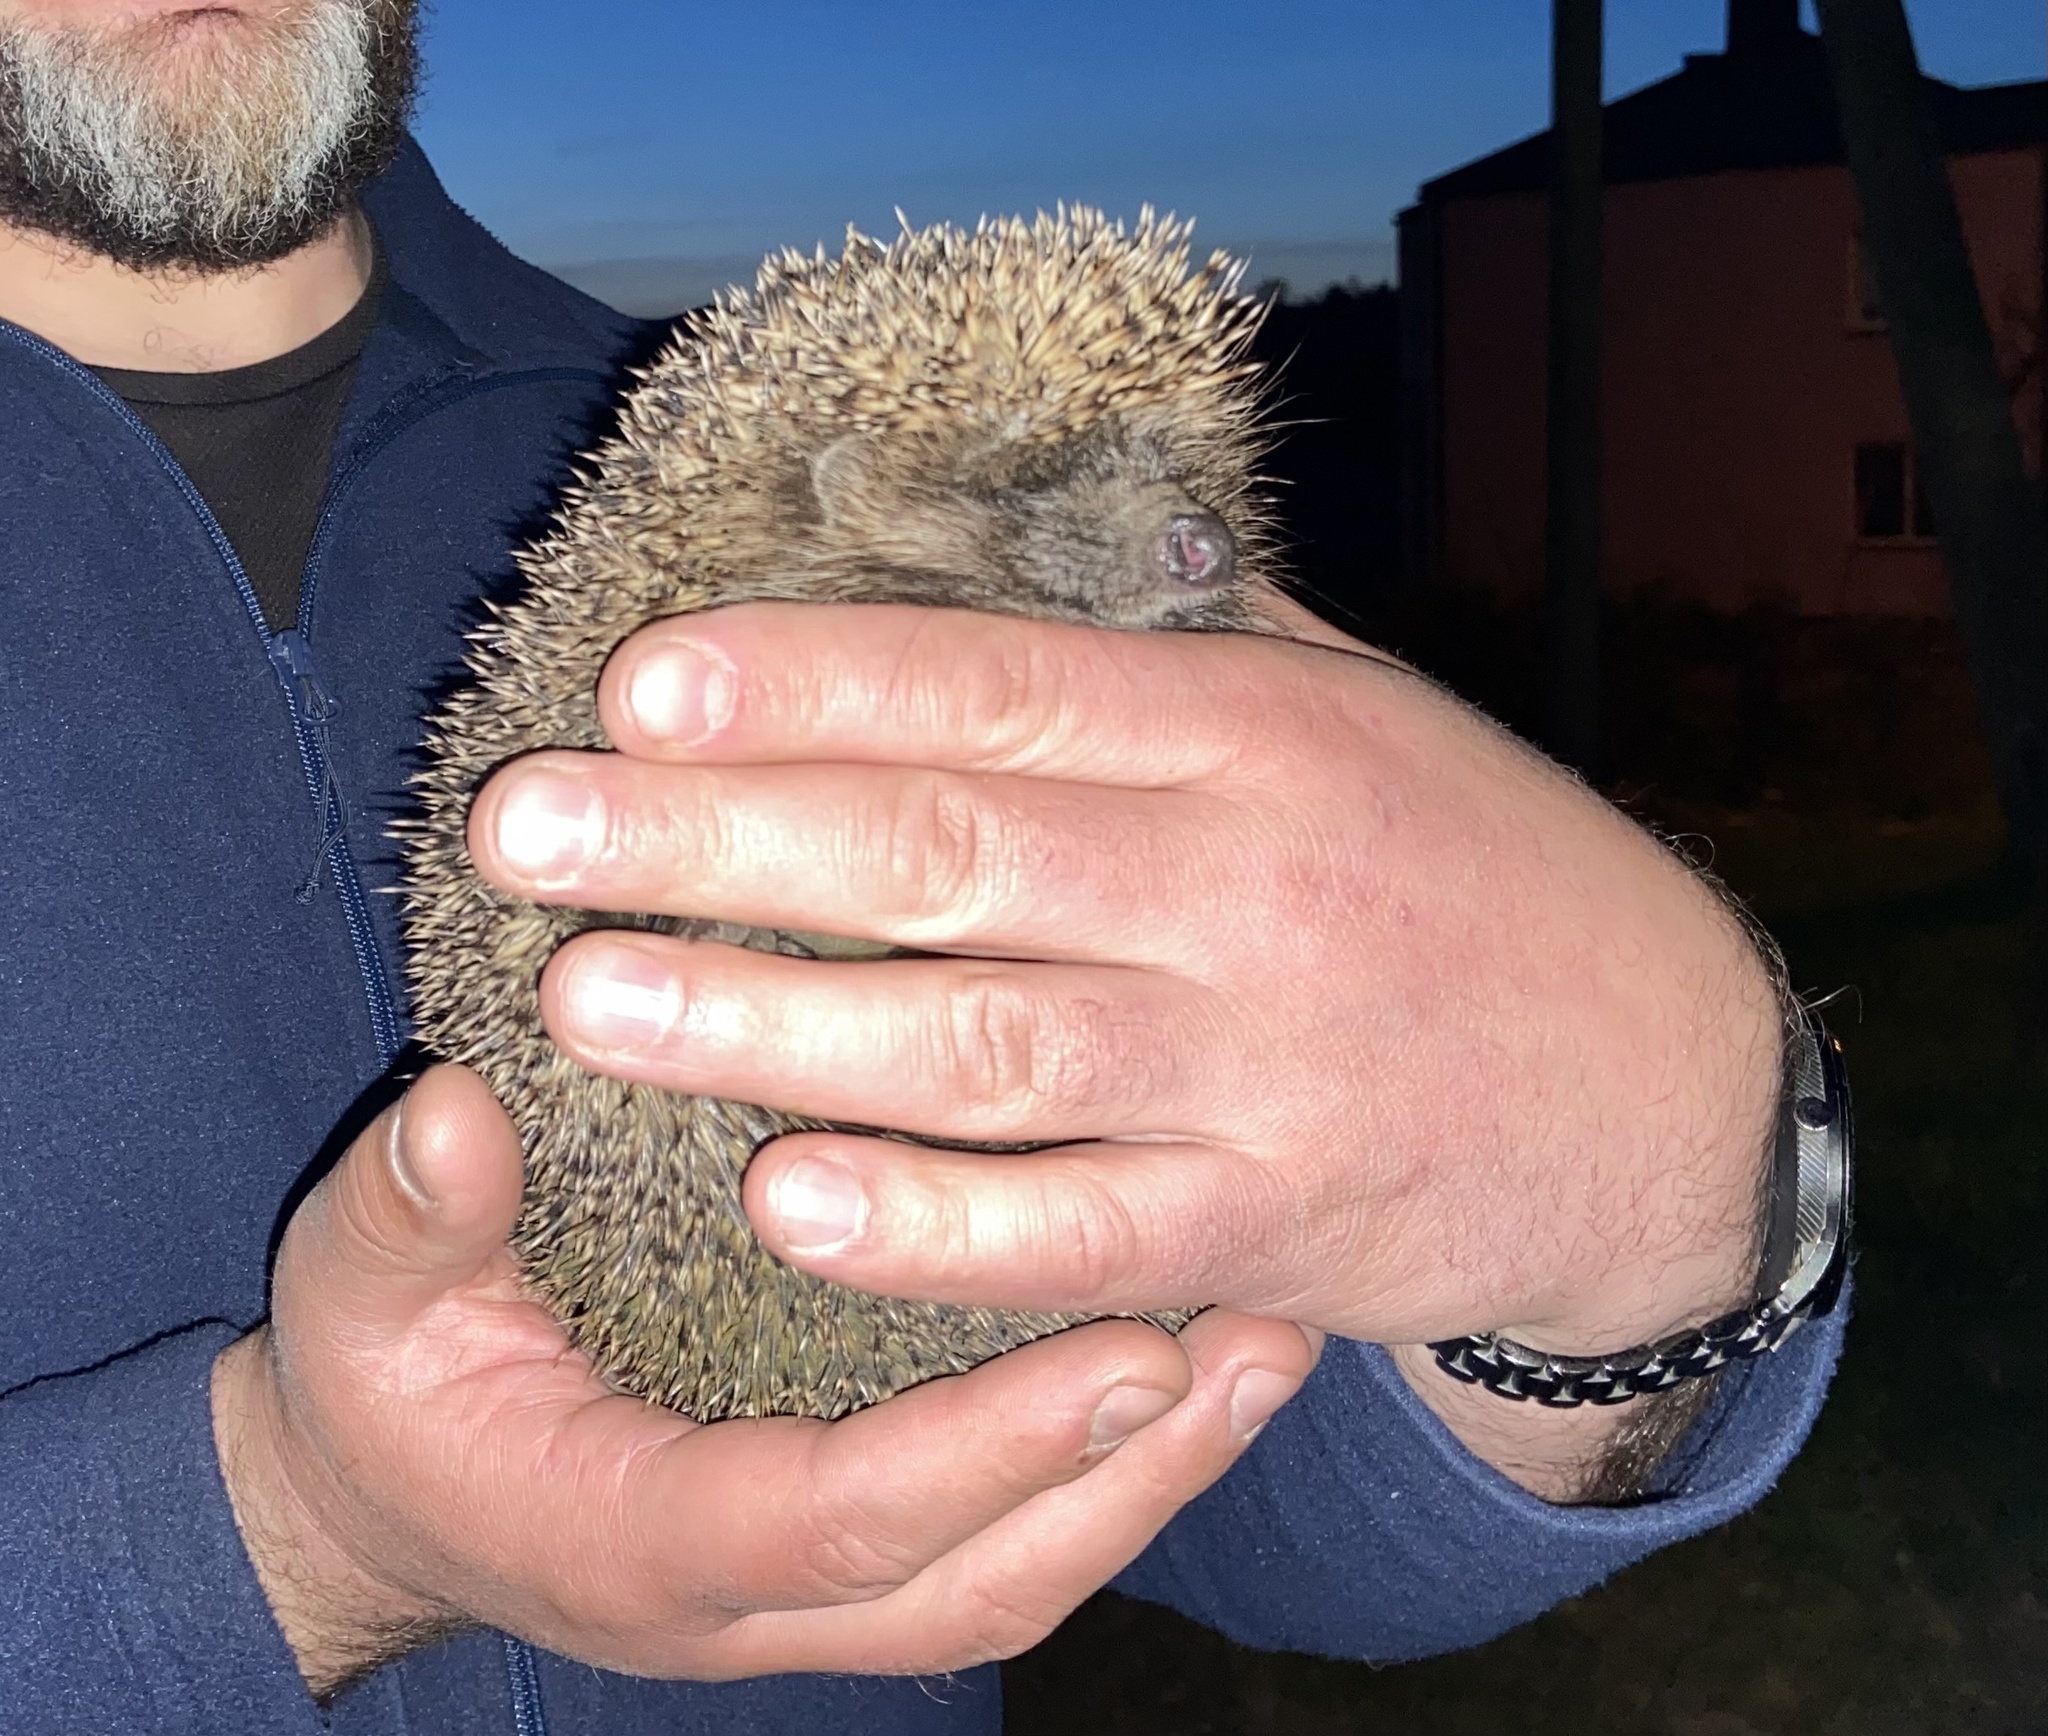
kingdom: Animalia
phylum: Chordata
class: Mammalia
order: Erinaceomorpha
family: Erinaceidae
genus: Erinaceus
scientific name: Erinaceus roumanicus
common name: Northern white-breasted hedgehog
